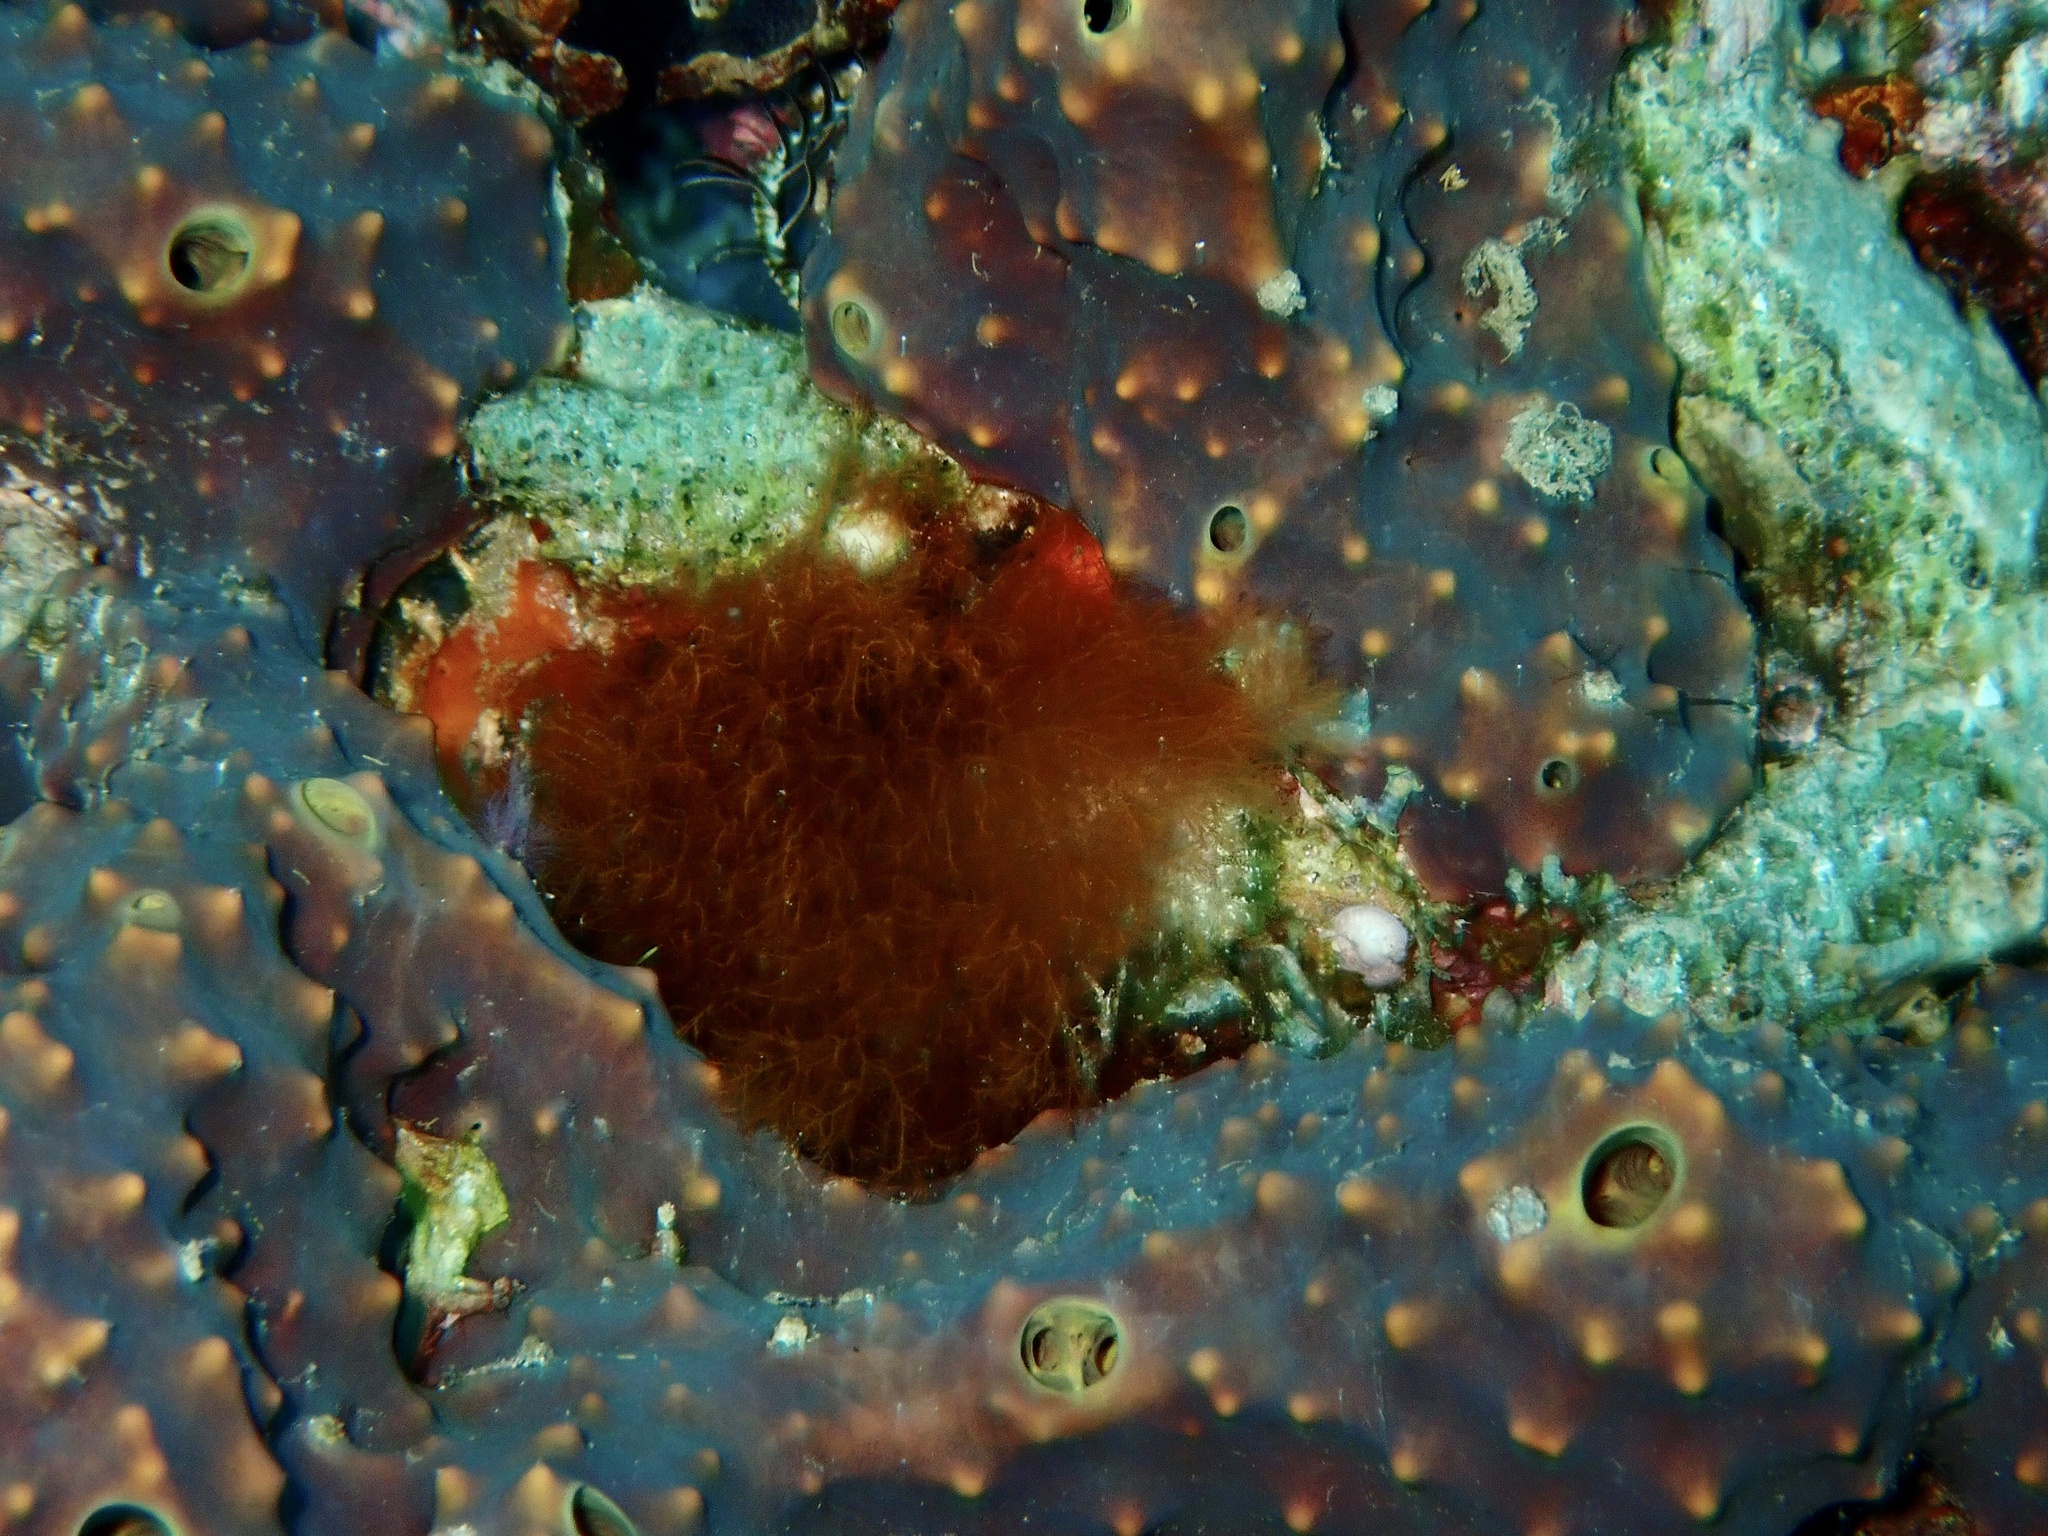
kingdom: Animalia
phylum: Porifera
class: Demospongiae
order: Verongiida
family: Aplysinellidae
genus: Suberea
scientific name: Suberea laboutei
